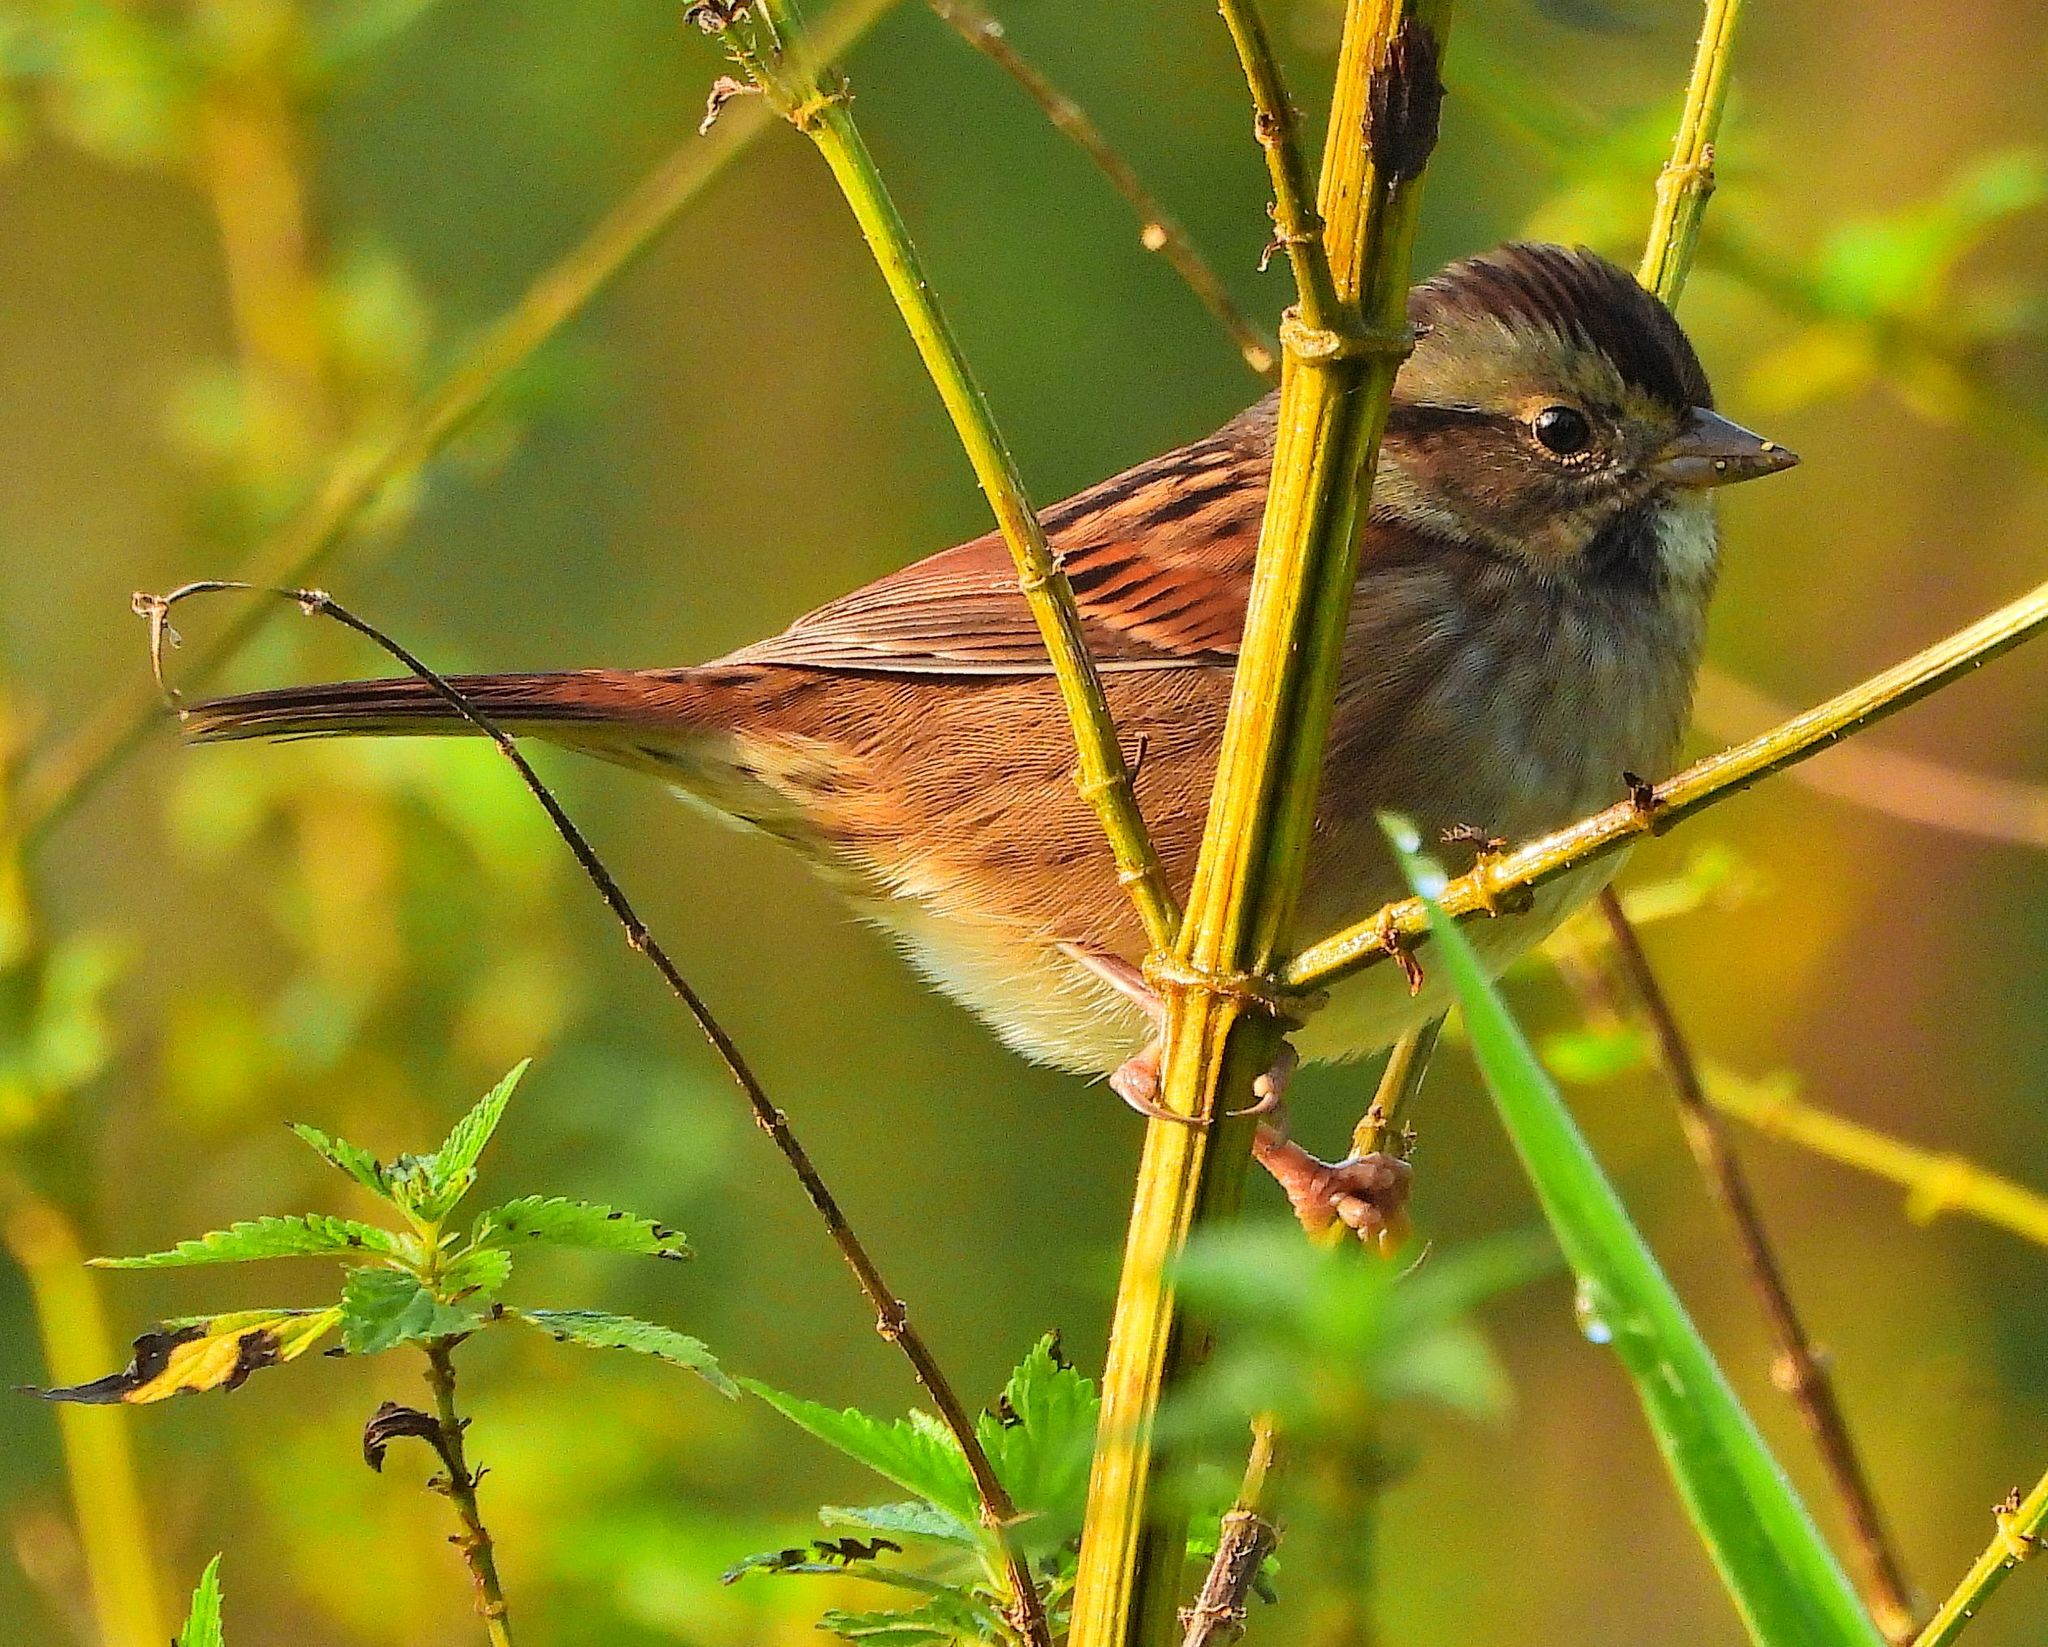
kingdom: Animalia
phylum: Chordata
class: Aves
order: Passeriformes
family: Passerellidae
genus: Melospiza
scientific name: Melospiza georgiana
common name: Swamp sparrow
